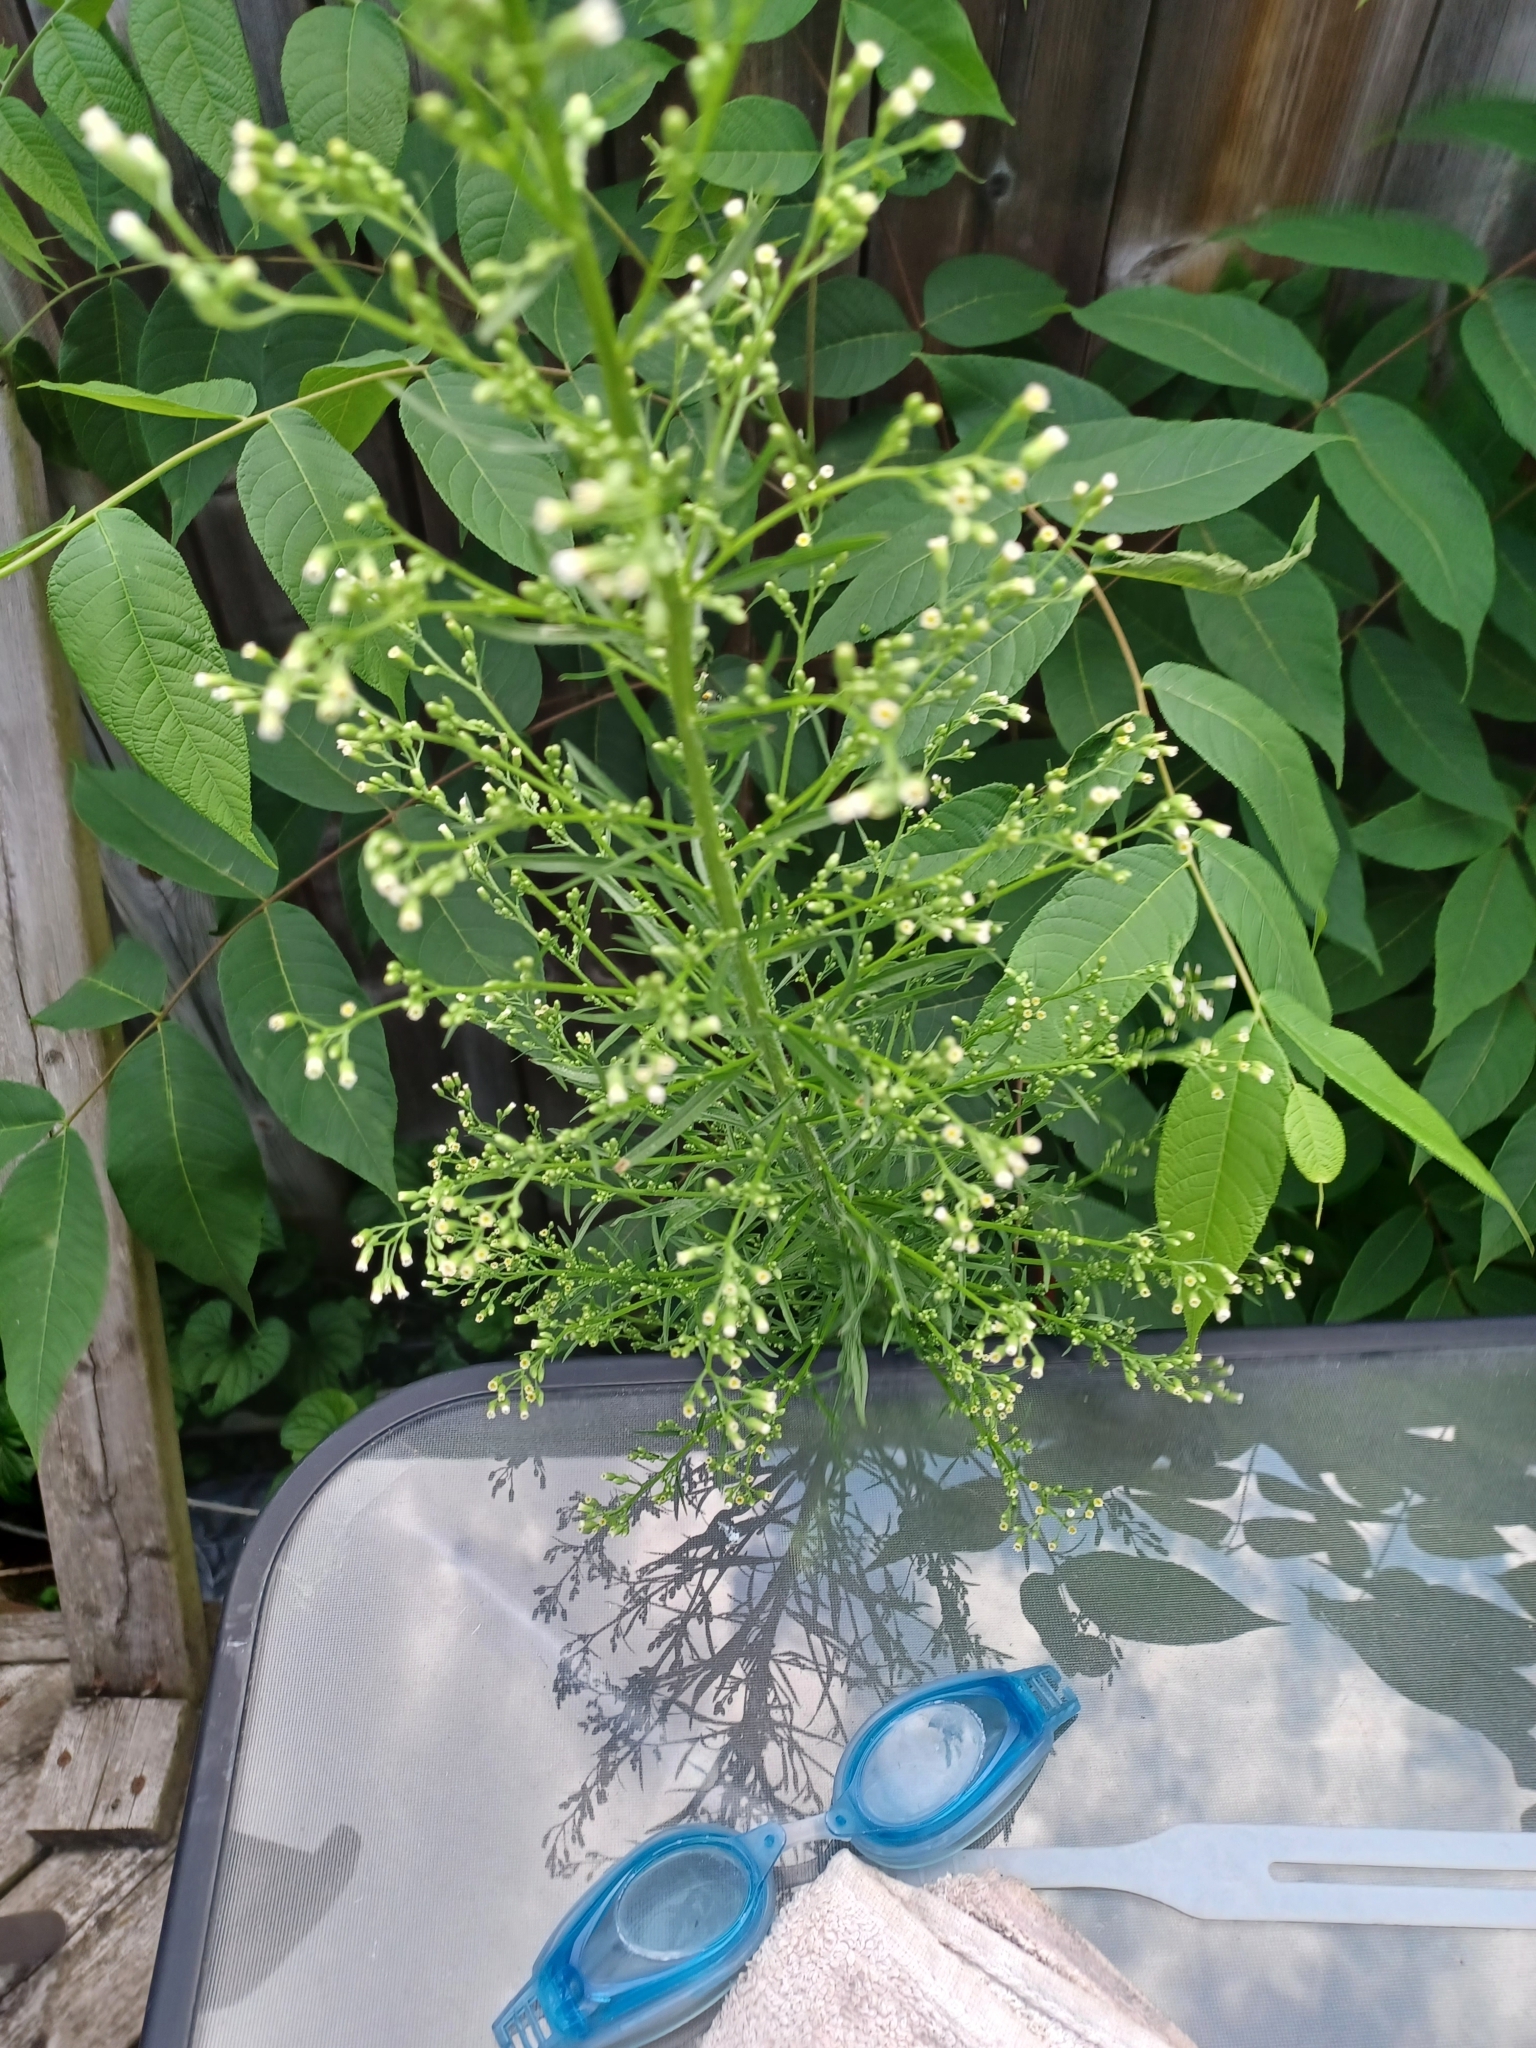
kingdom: Plantae
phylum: Tracheophyta
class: Magnoliopsida
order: Asterales
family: Asteraceae
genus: Erigeron
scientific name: Erigeron canadensis
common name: Canadian fleabane
